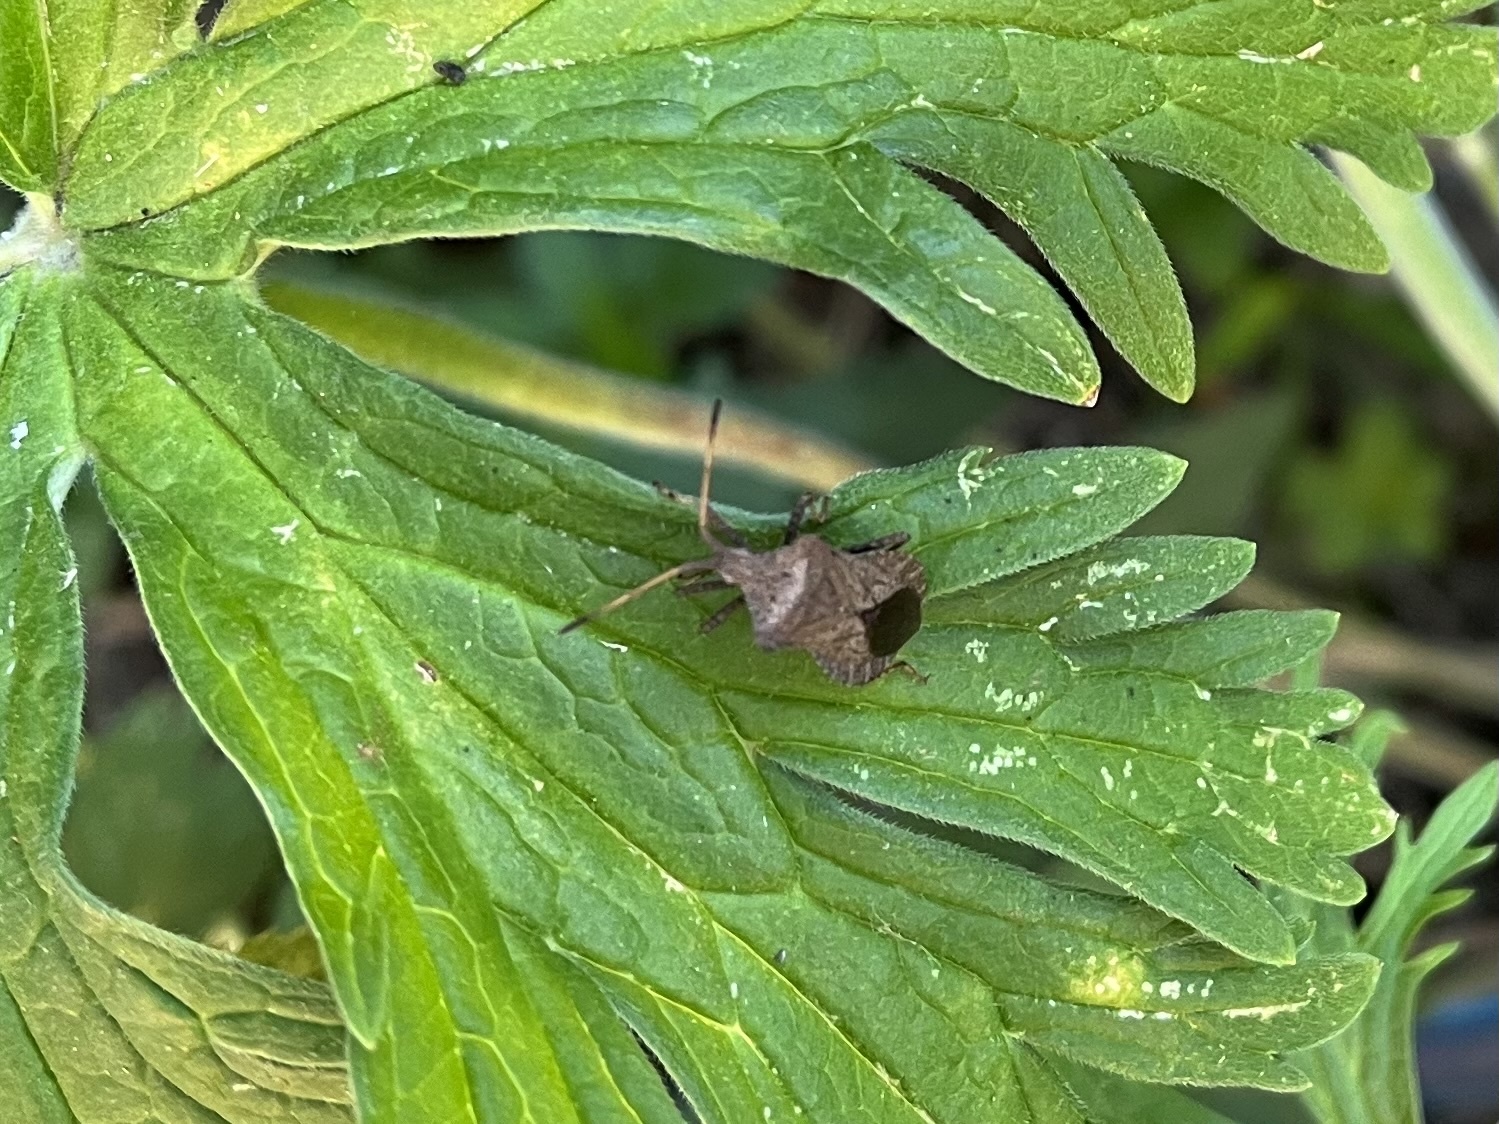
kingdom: Animalia
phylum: Arthropoda
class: Insecta
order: Hemiptera
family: Coreidae
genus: Coreus
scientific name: Coreus marginatus
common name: Dock bug
